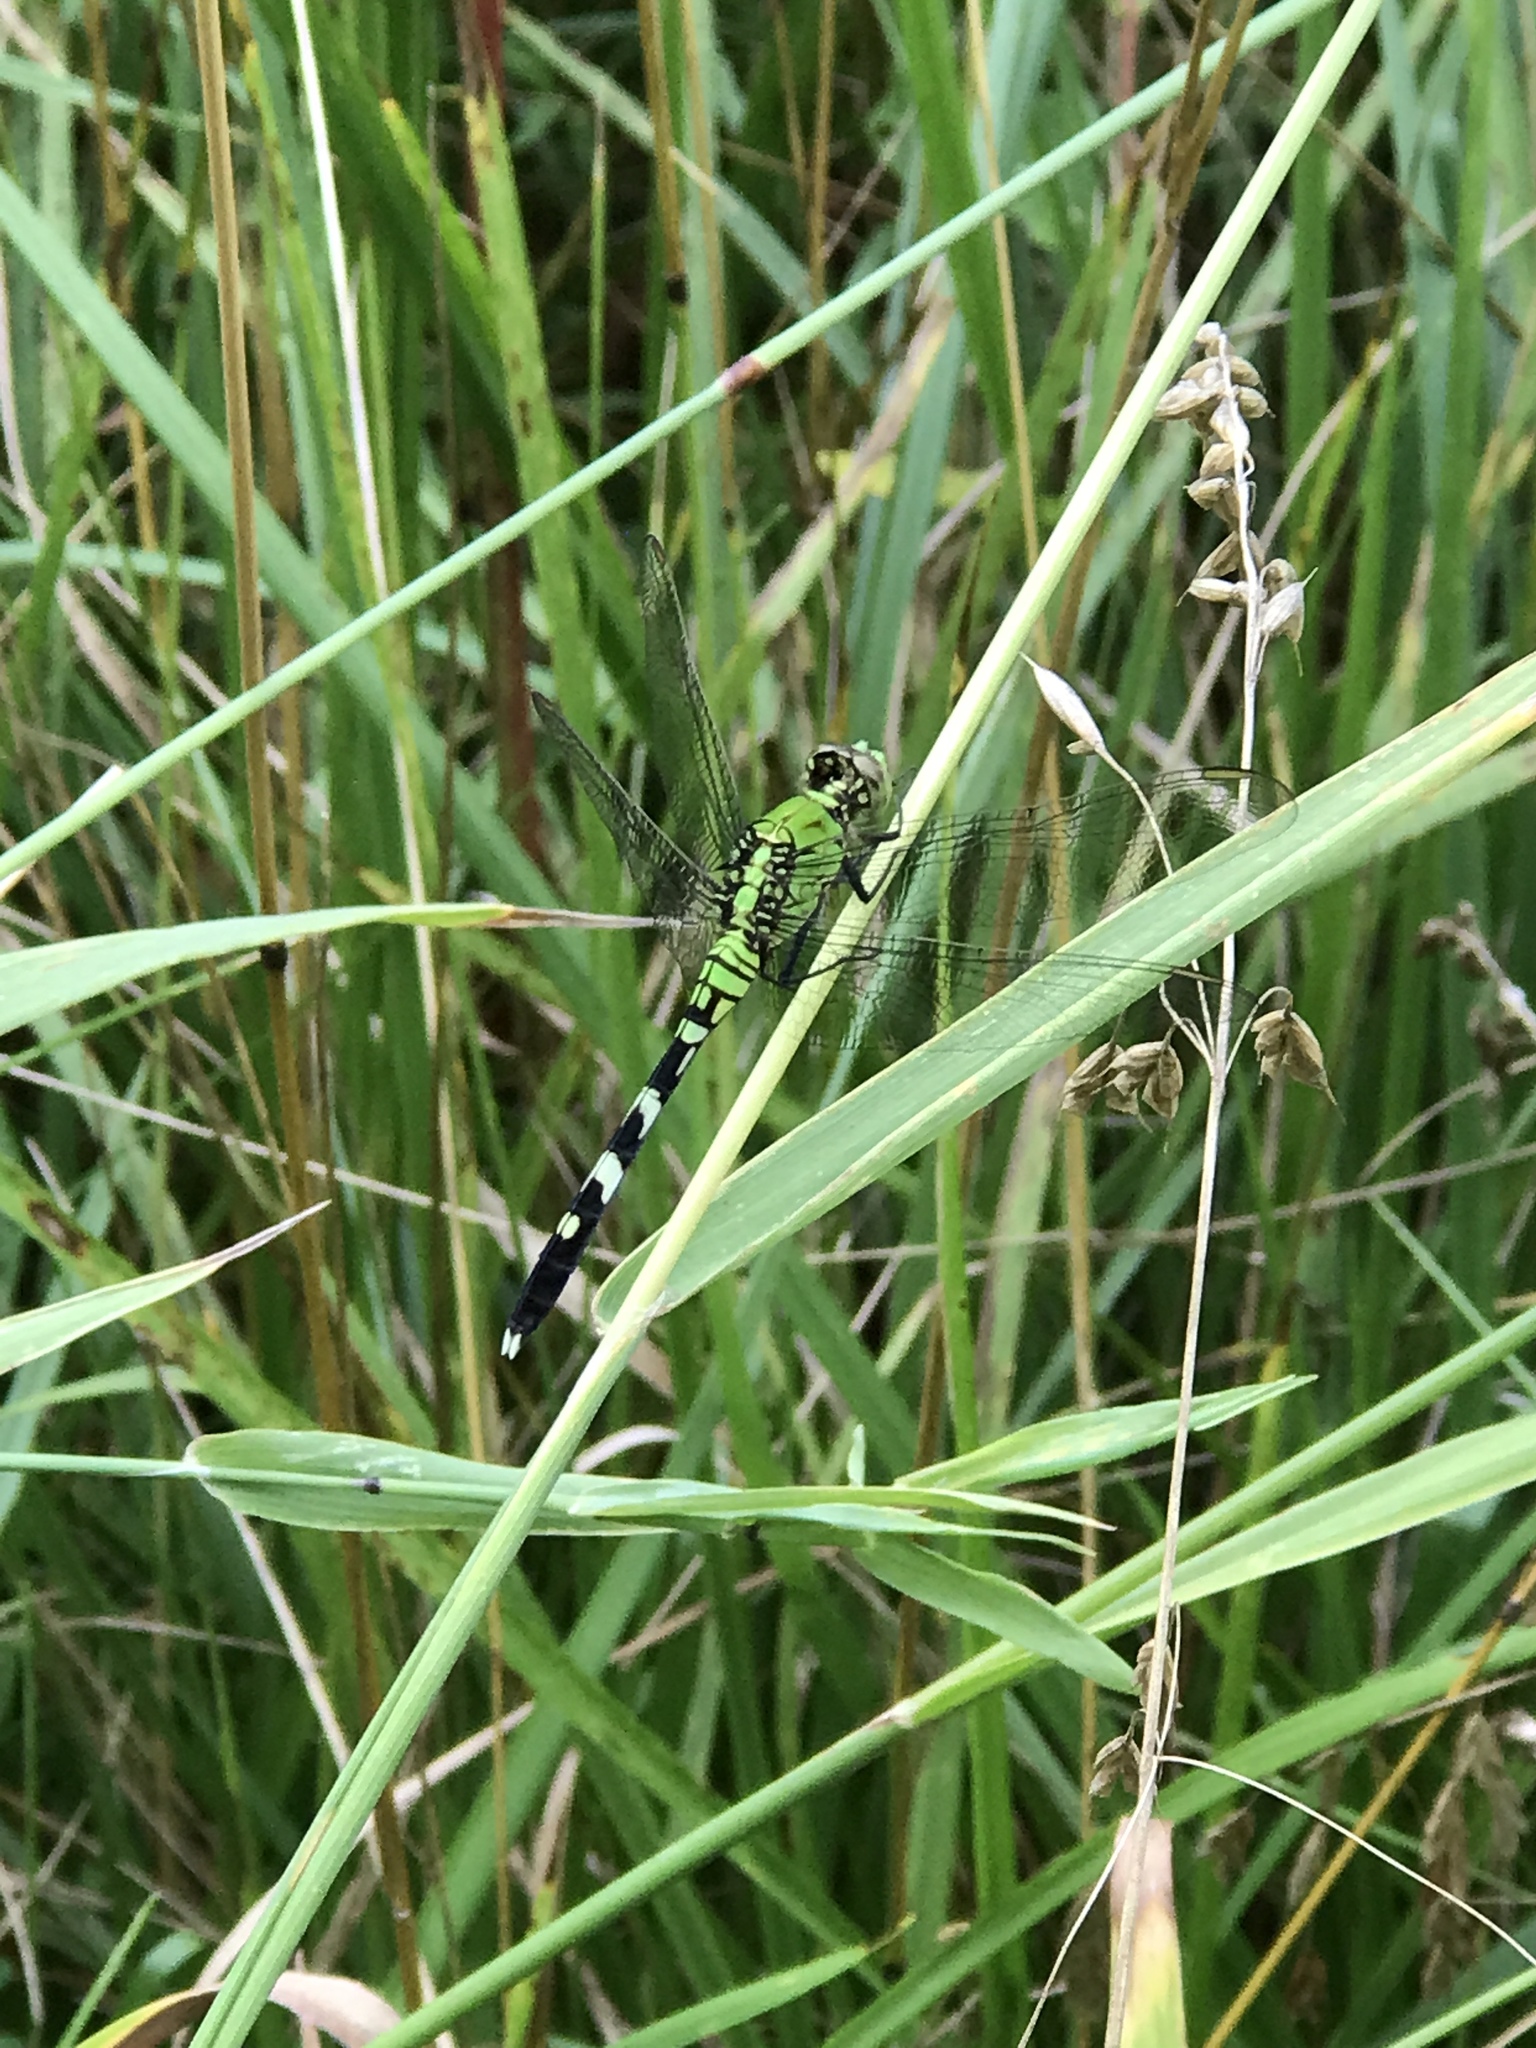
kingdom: Animalia
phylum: Arthropoda
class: Insecta
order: Odonata
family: Libellulidae
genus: Erythemis
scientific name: Erythemis simplicicollis
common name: Eastern pondhawk
